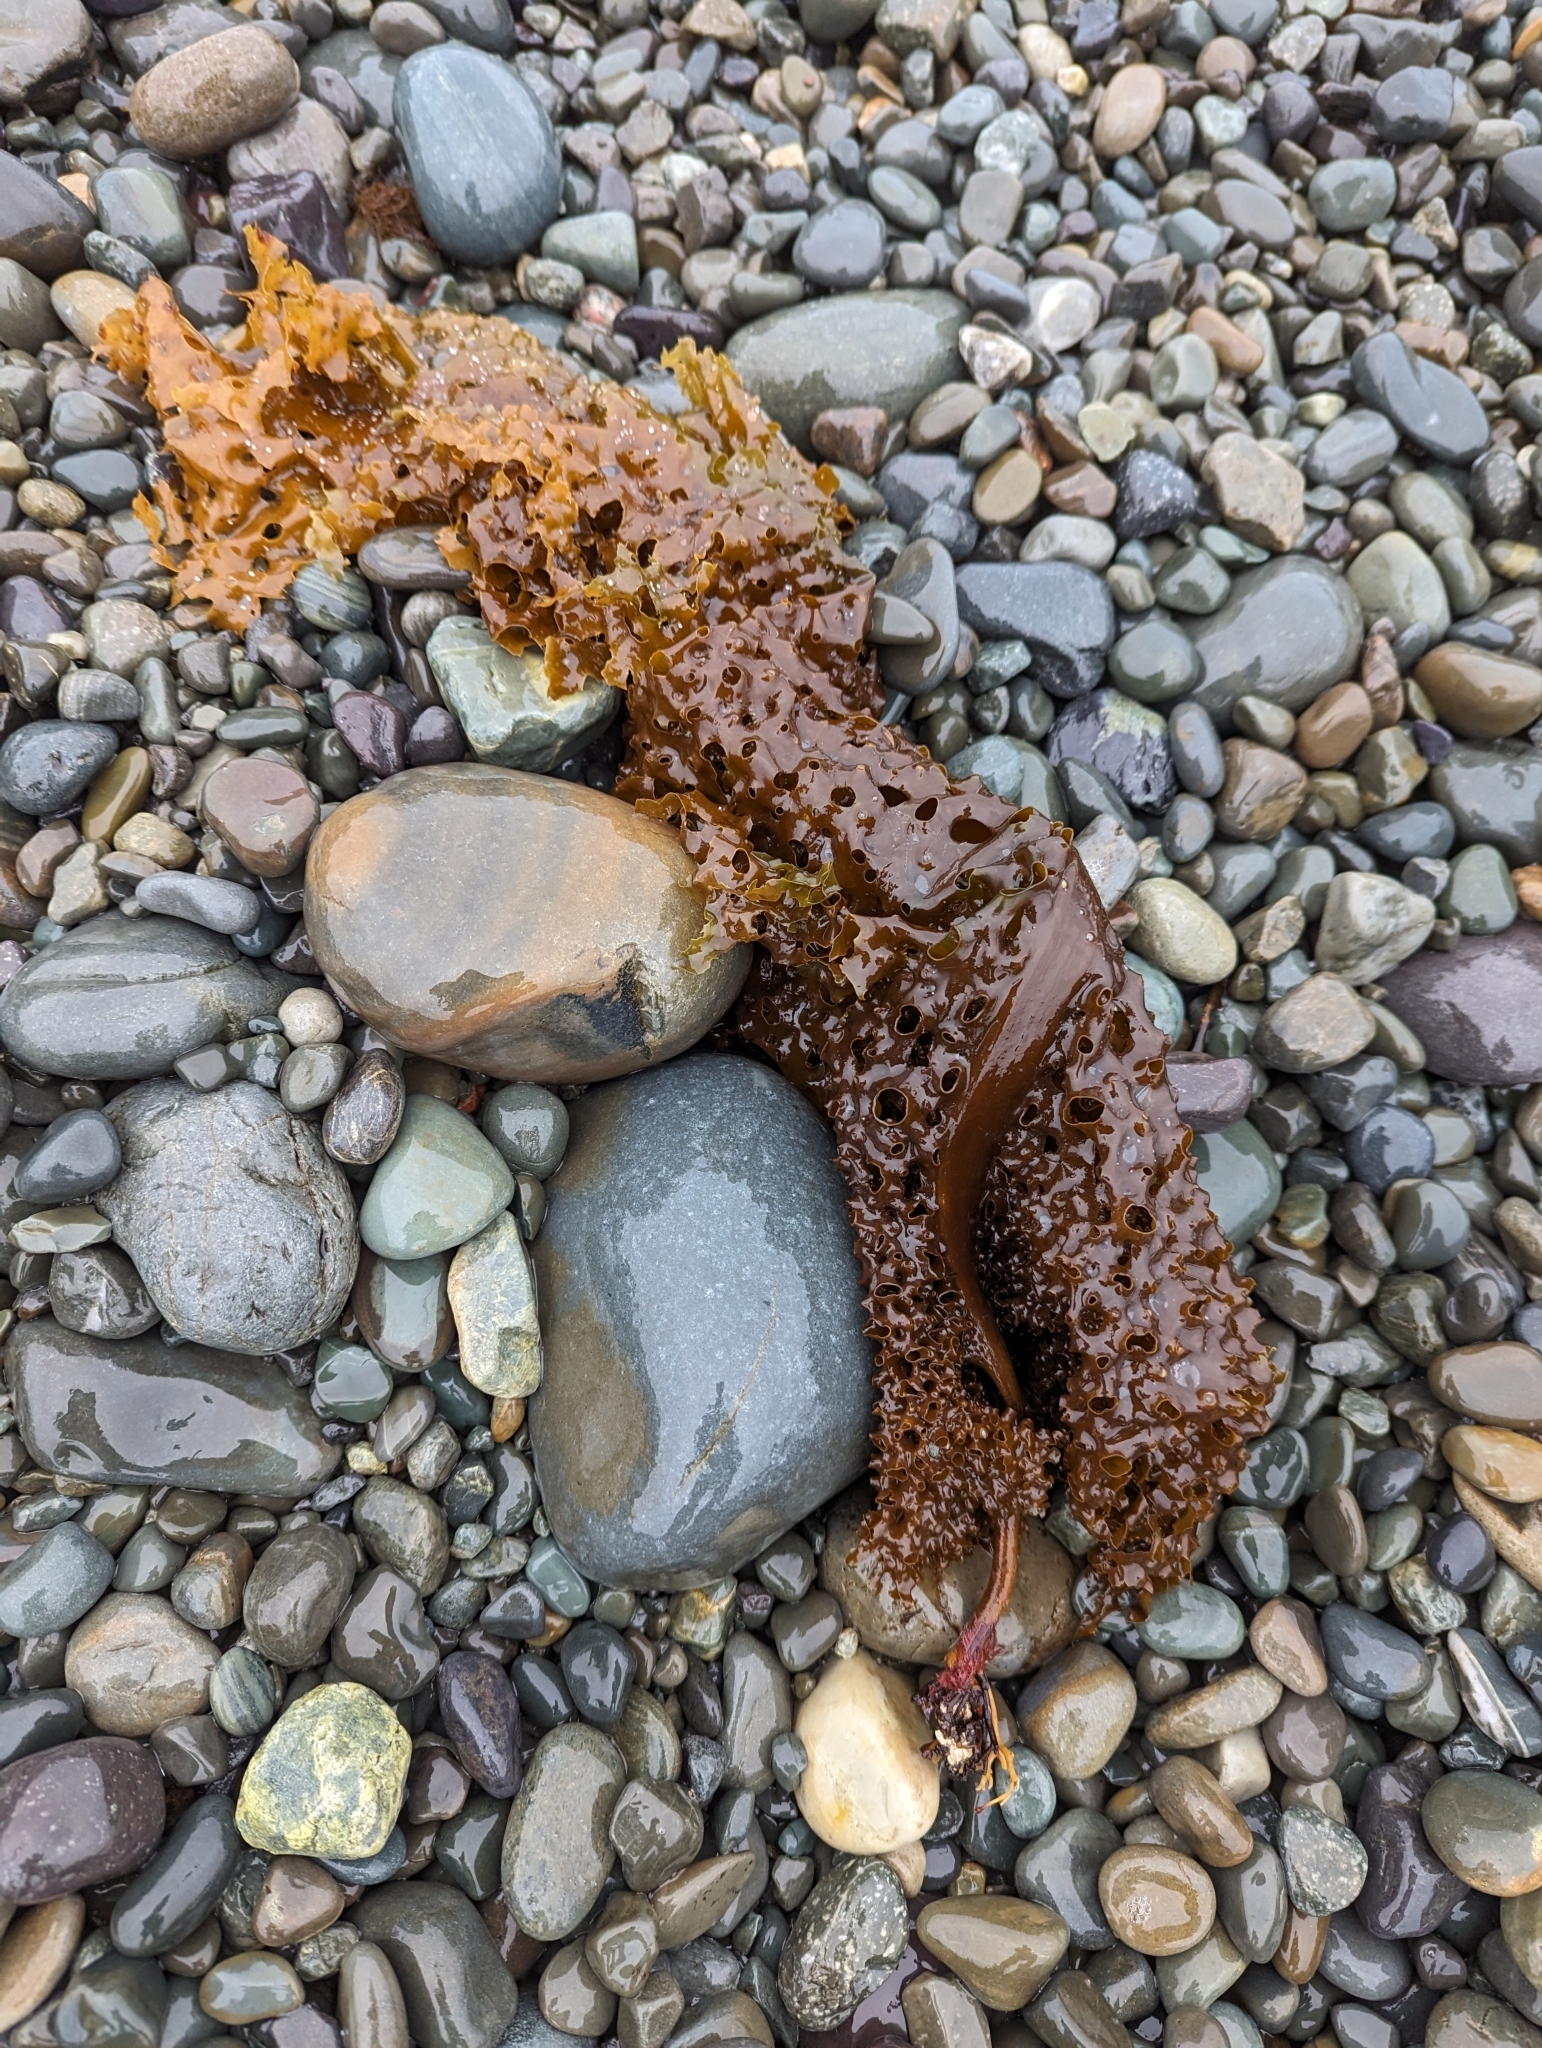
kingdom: Chromista
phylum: Ochrophyta
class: Phaeophyceae
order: Laminariales
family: Costariaceae
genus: Agarum
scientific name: Agarum clathratum
